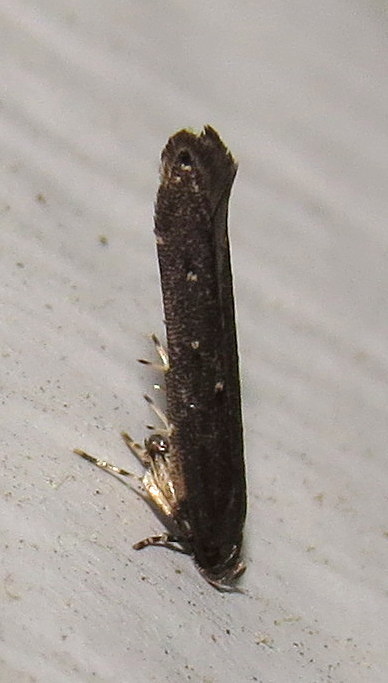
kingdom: Animalia
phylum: Arthropoda
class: Insecta
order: Lepidoptera
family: Cosmopterigidae
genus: Ithome
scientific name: Ithome erransella
